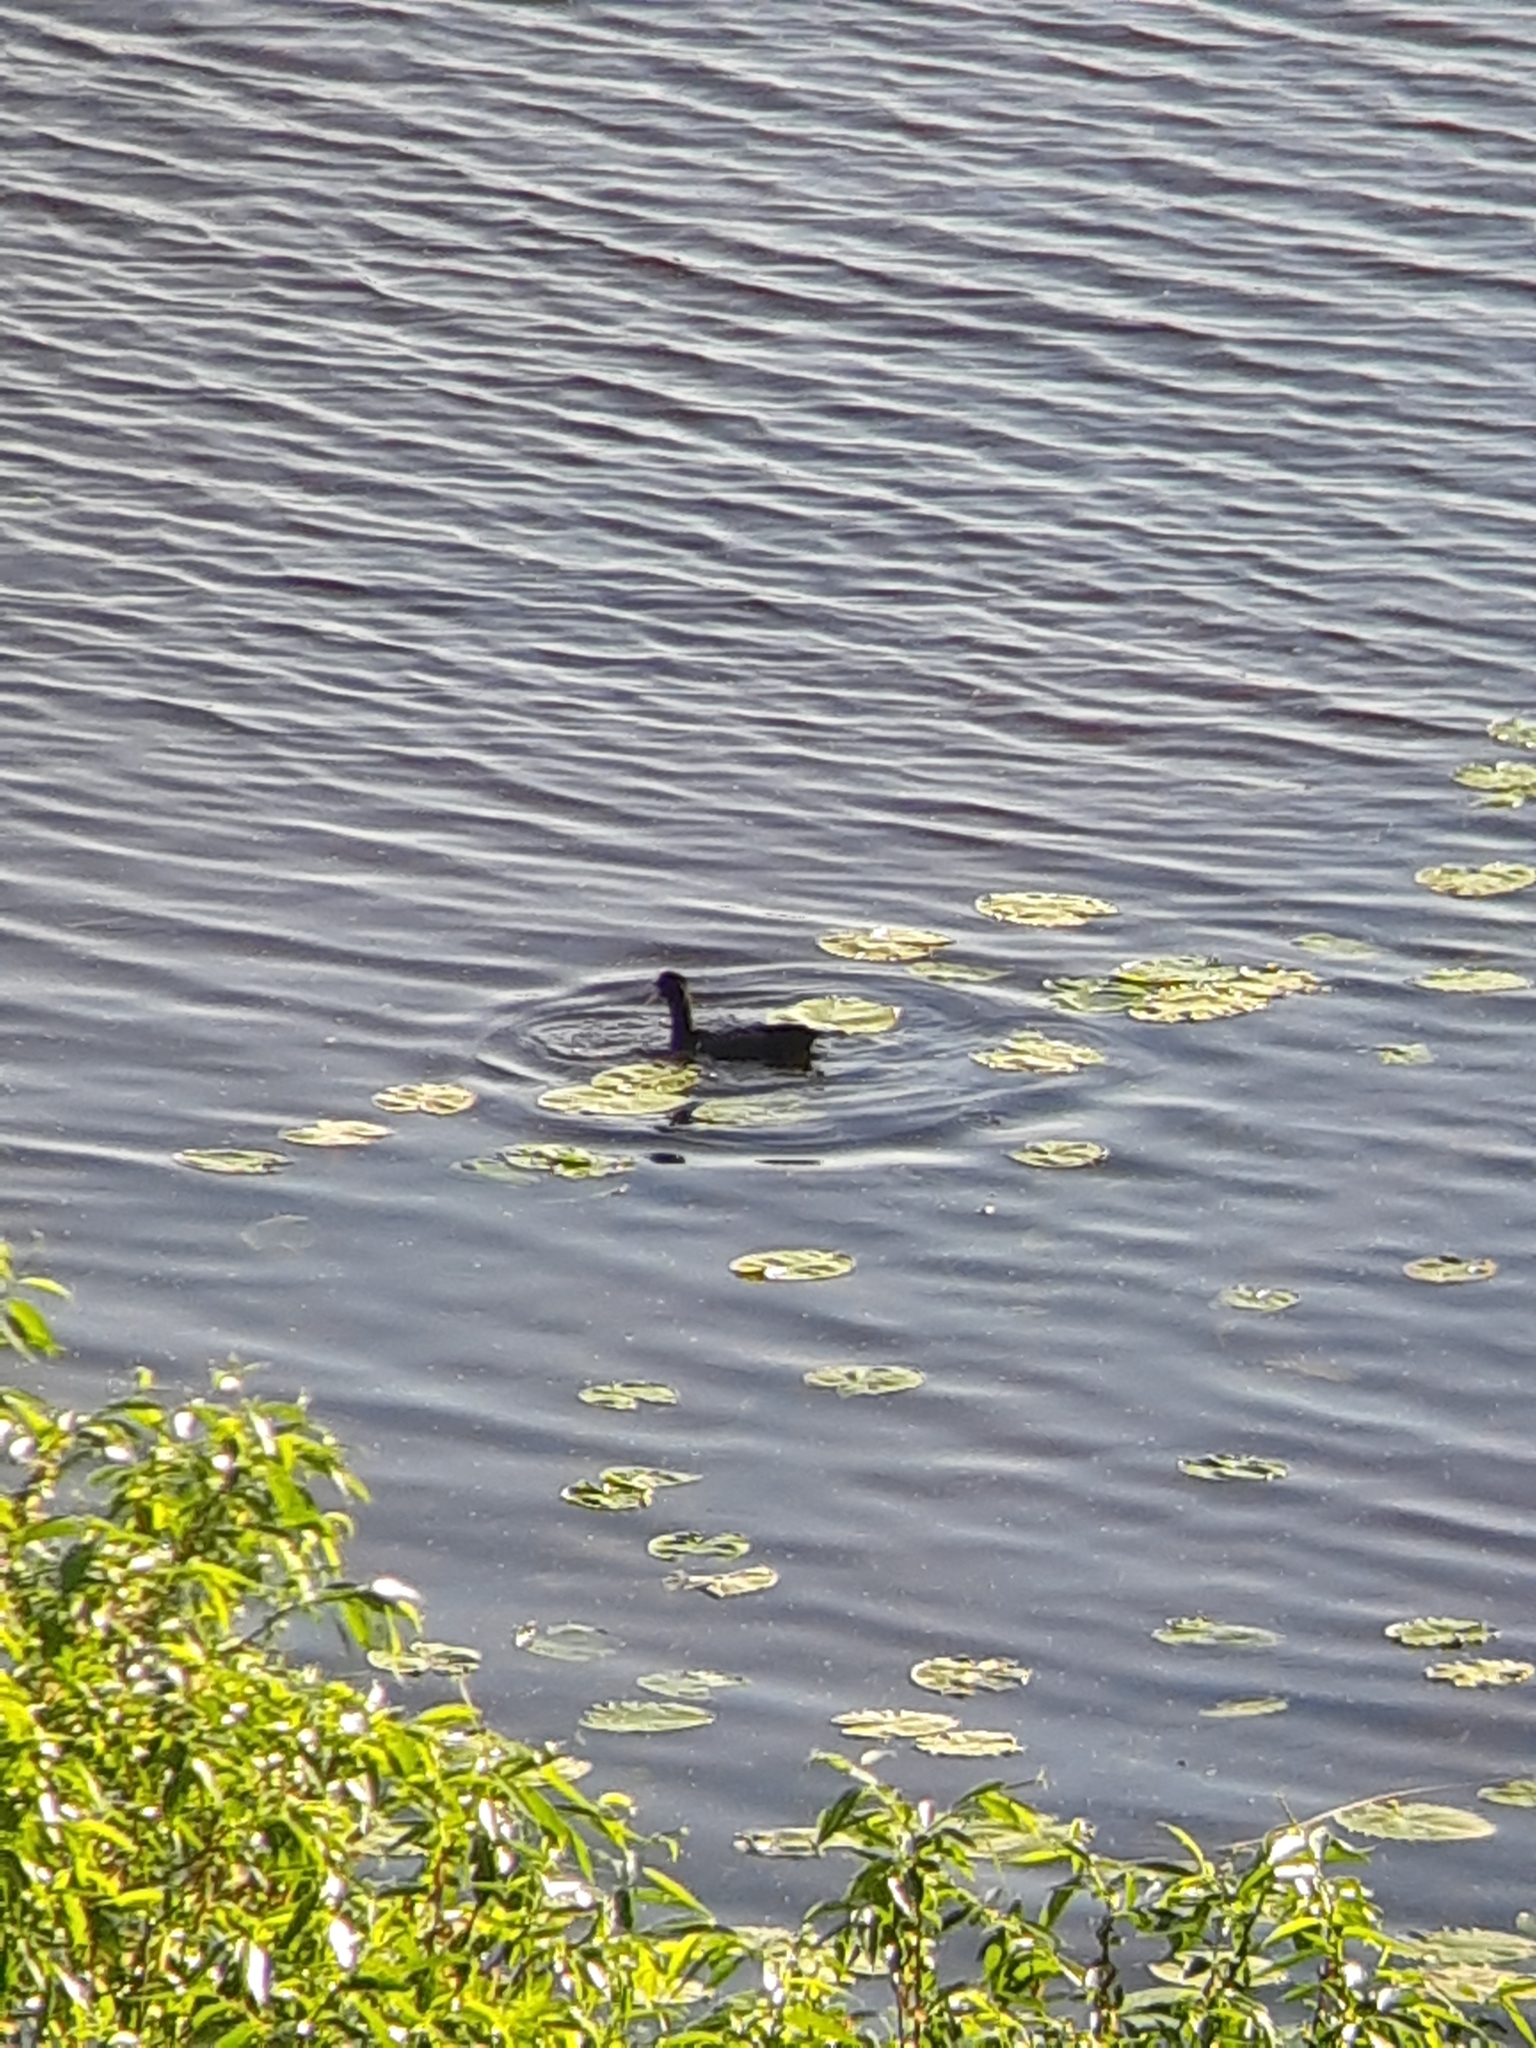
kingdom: Animalia
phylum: Chordata
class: Aves
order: Gruiformes
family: Rallidae
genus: Fulica
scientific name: Fulica atra
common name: Eurasian coot
